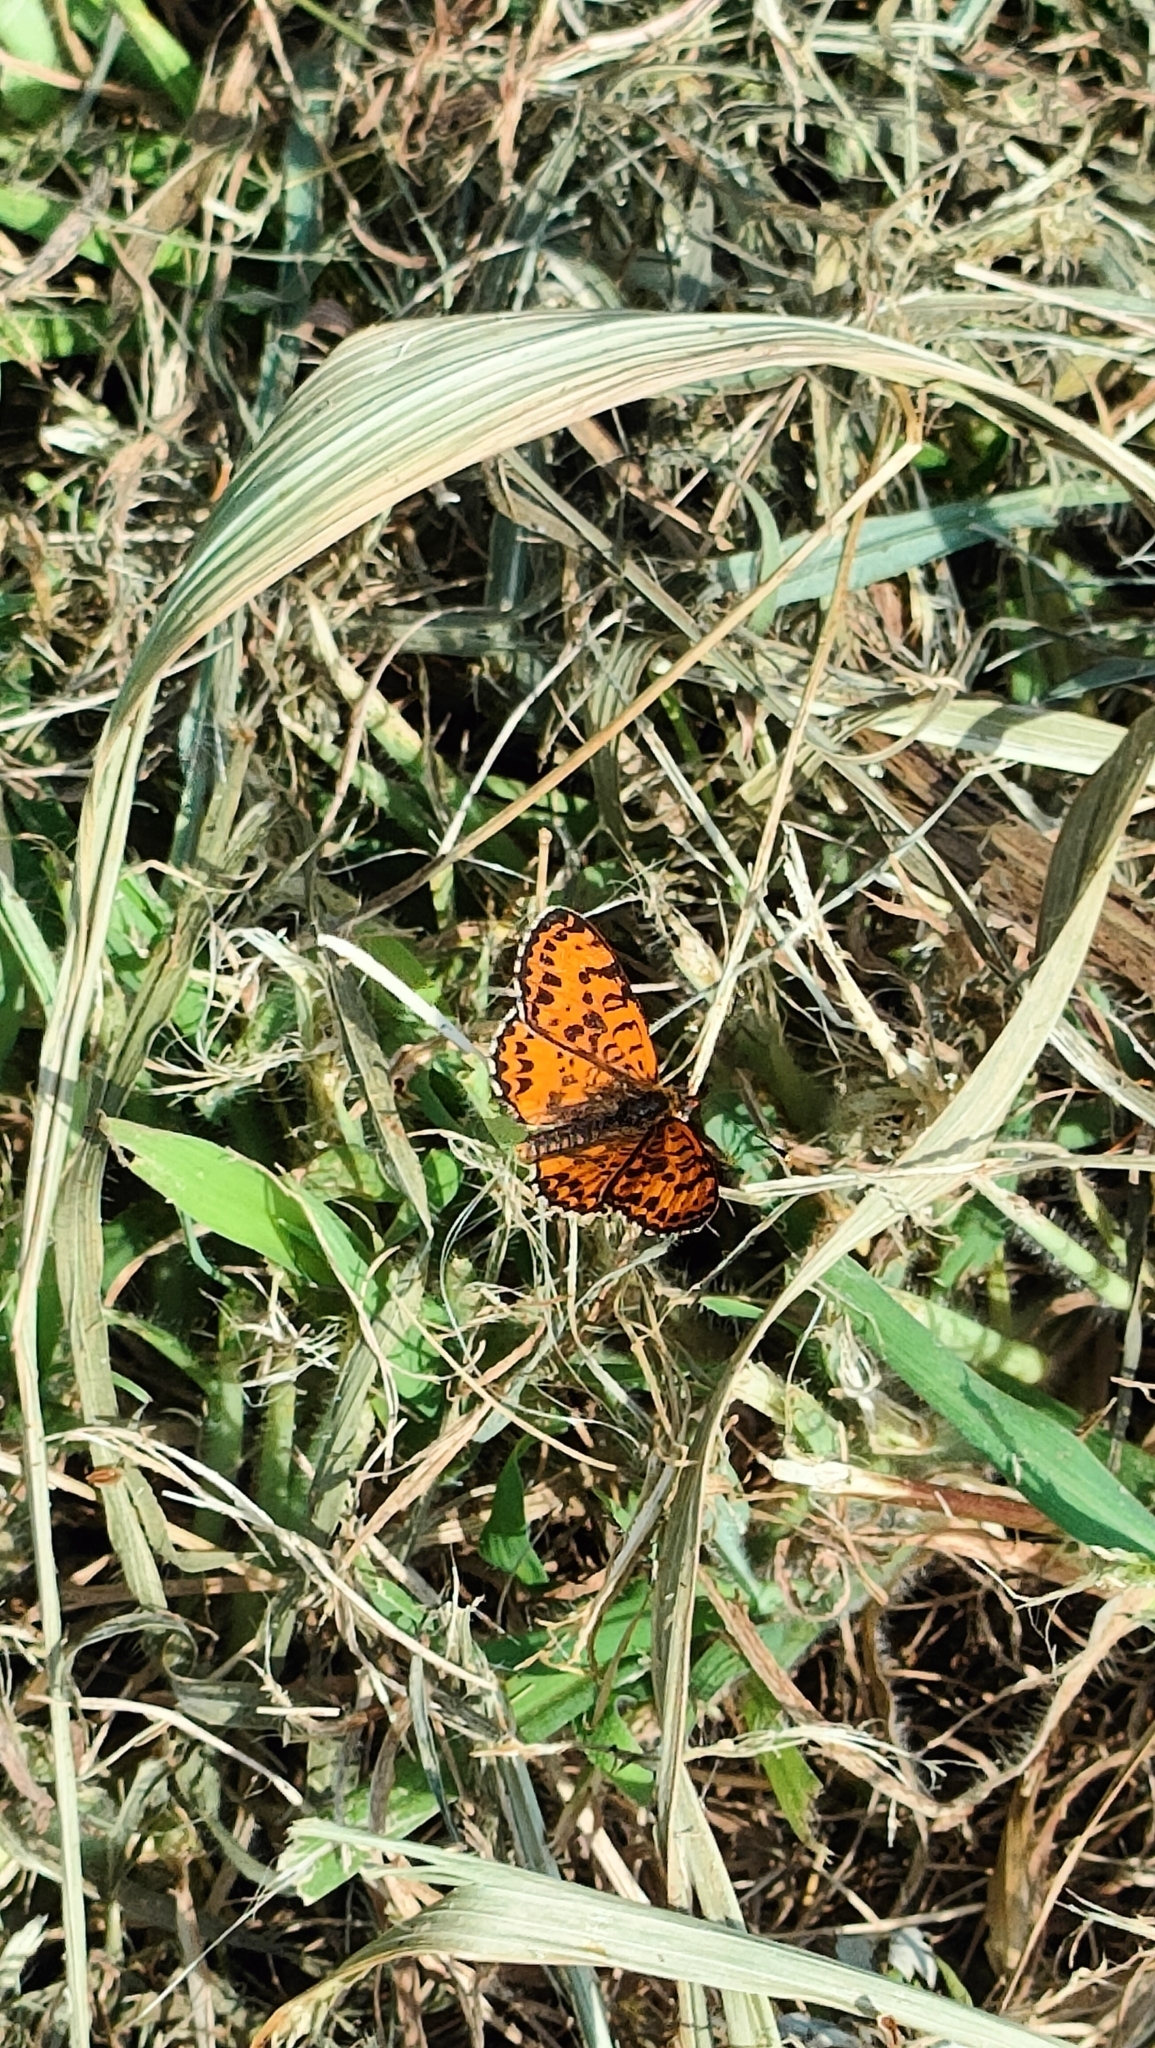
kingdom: Animalia
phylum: Arthropoda
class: Insecta
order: Lepidoptera
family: Nymphalidae
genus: Melitaea
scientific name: Melitaea didyma
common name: Spotted fritillary
